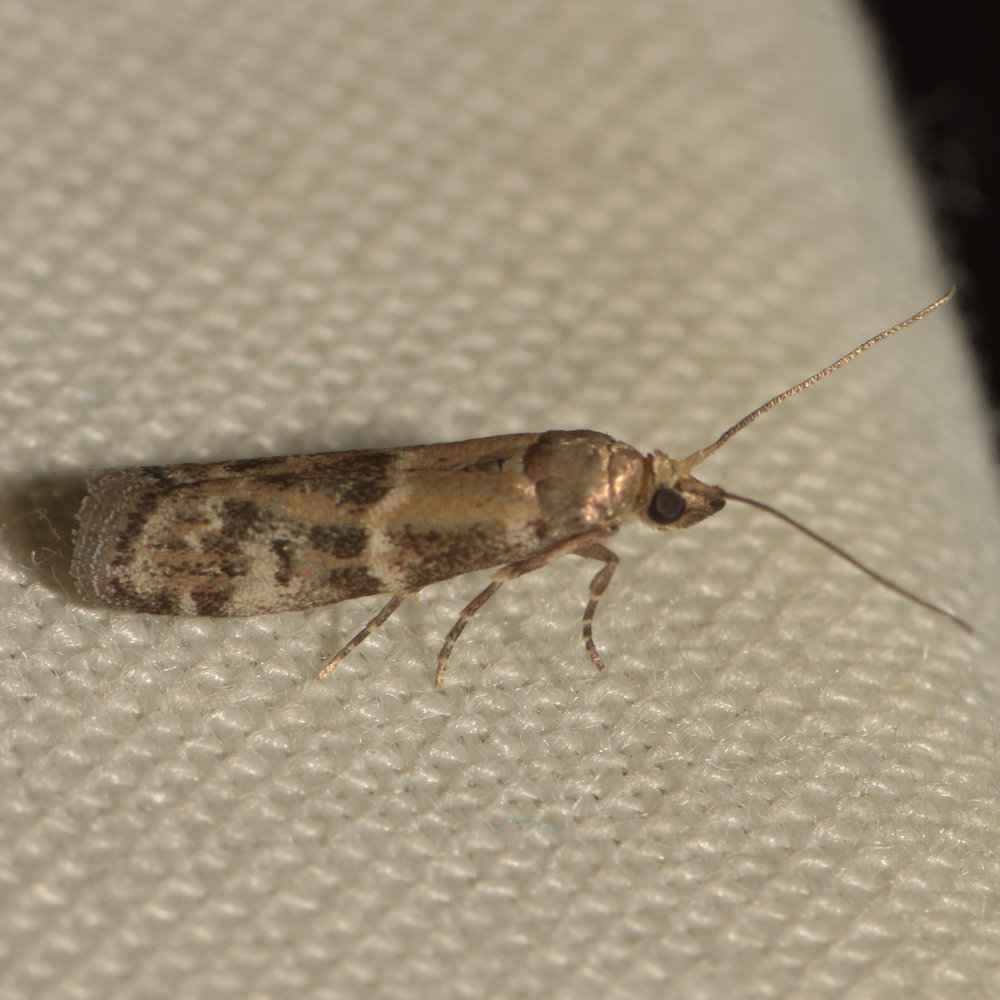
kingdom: Animalia
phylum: Arthropoda
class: Insecta
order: Lepidoptera
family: Pyralidae
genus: Vitula
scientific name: Vitula broweri
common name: Brower's vitula moth
